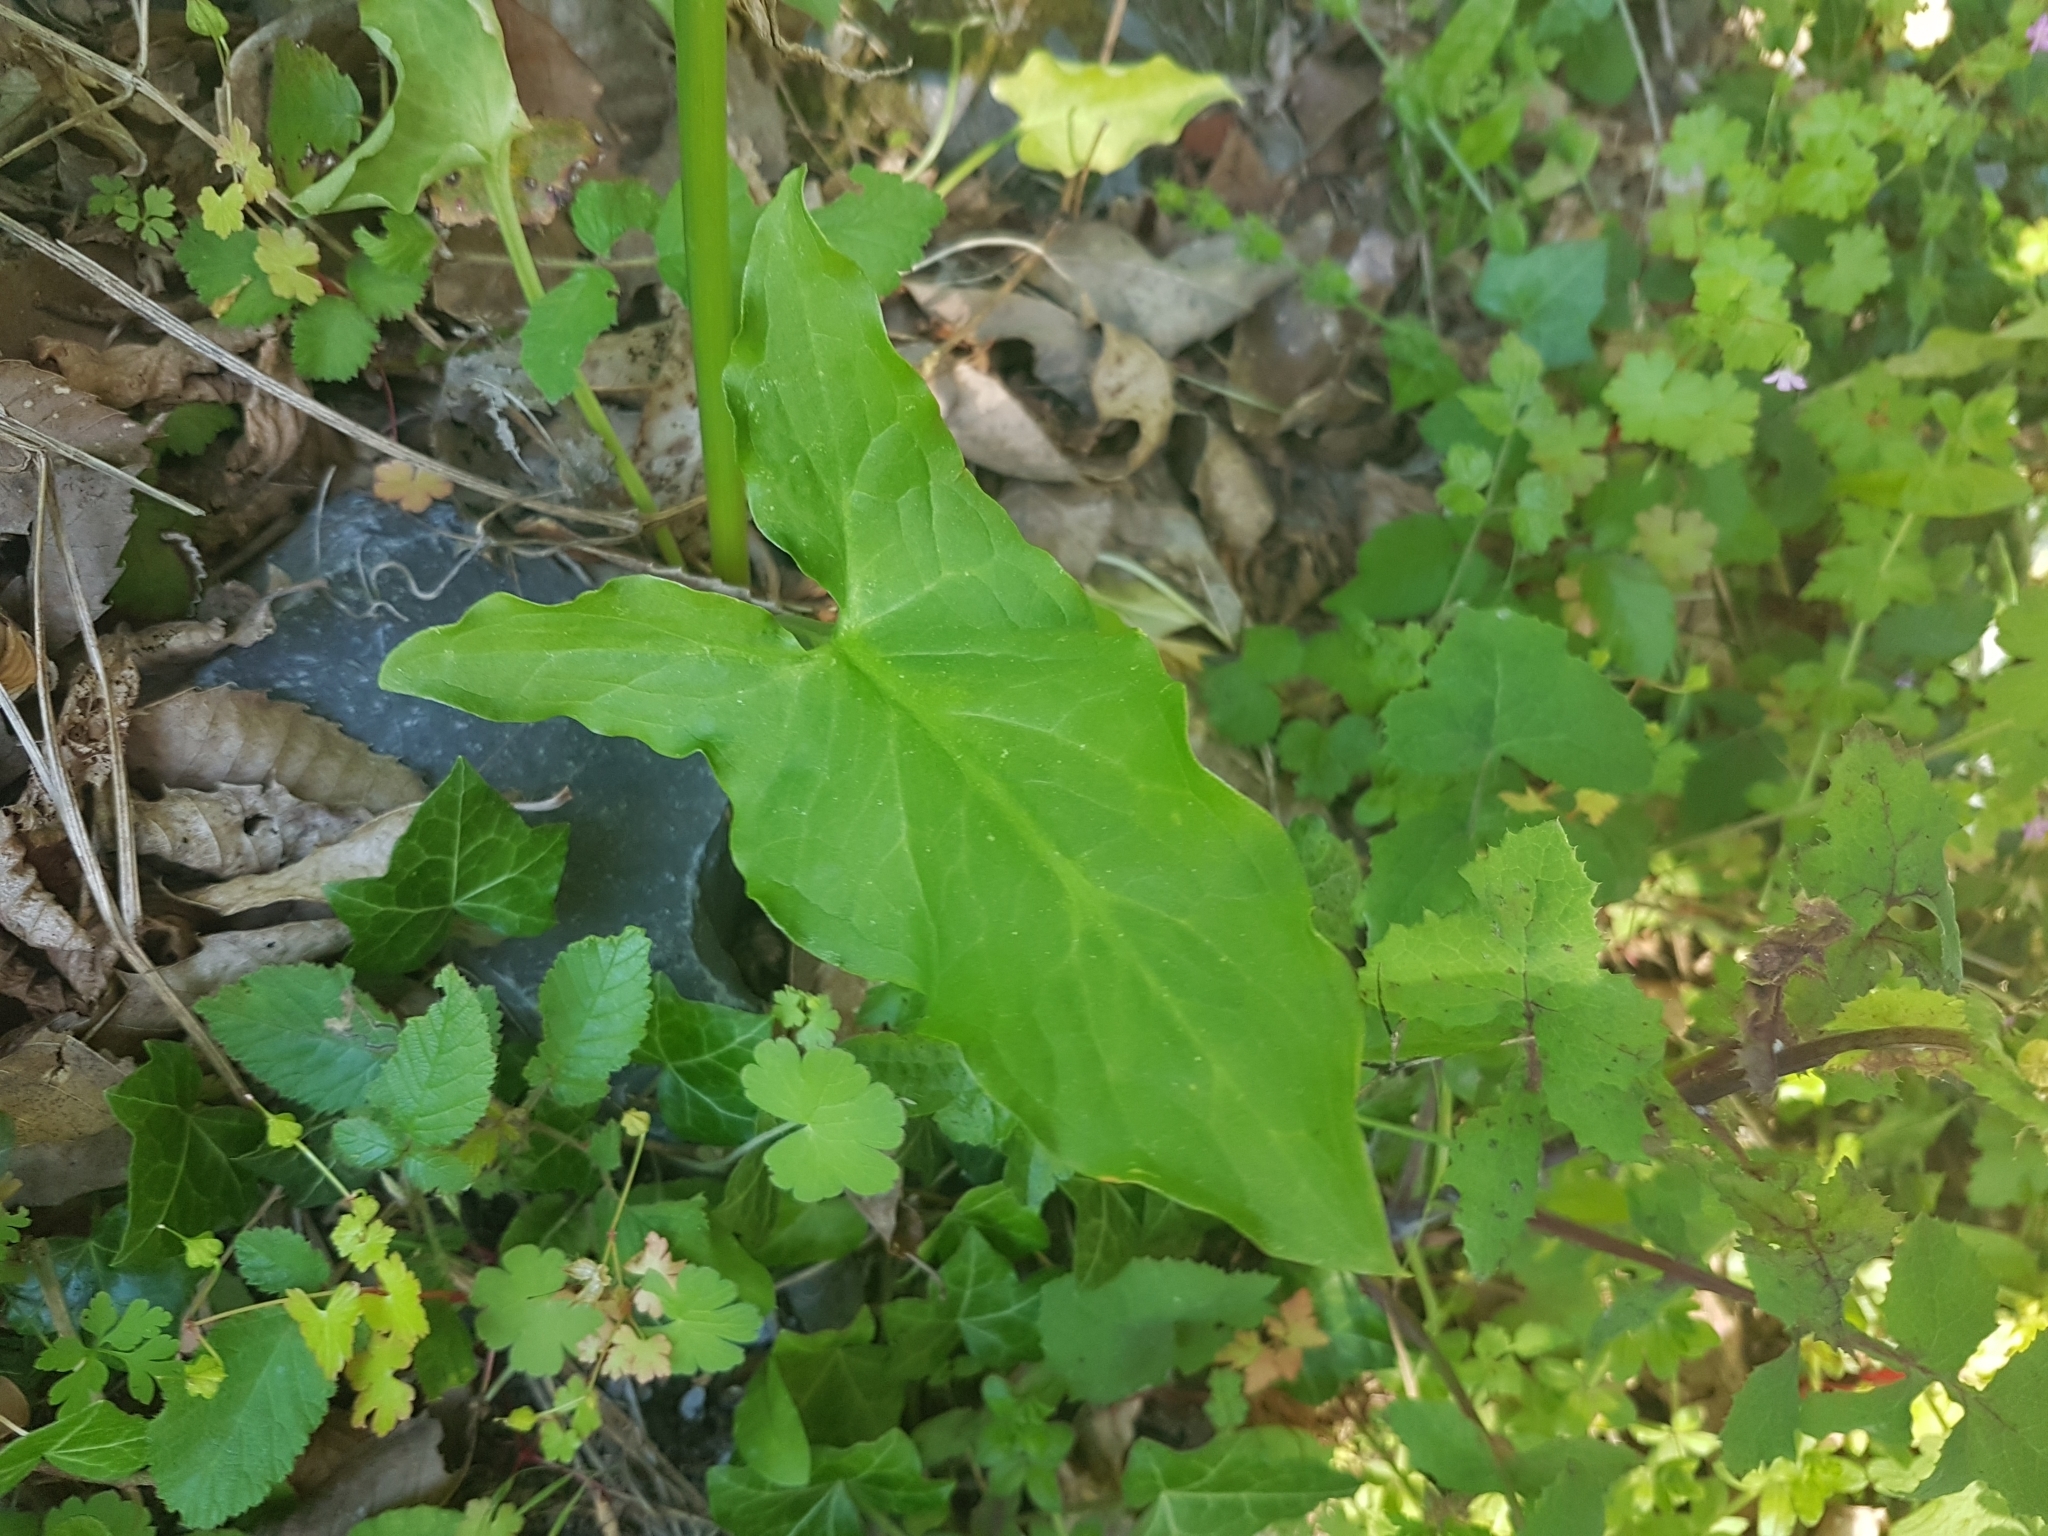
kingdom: Plantae
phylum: Tracheophyta
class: Liliopsida
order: Alismatales
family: Araceae
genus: Arum
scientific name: Arum italicum
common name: Italian lords-and-ladies
